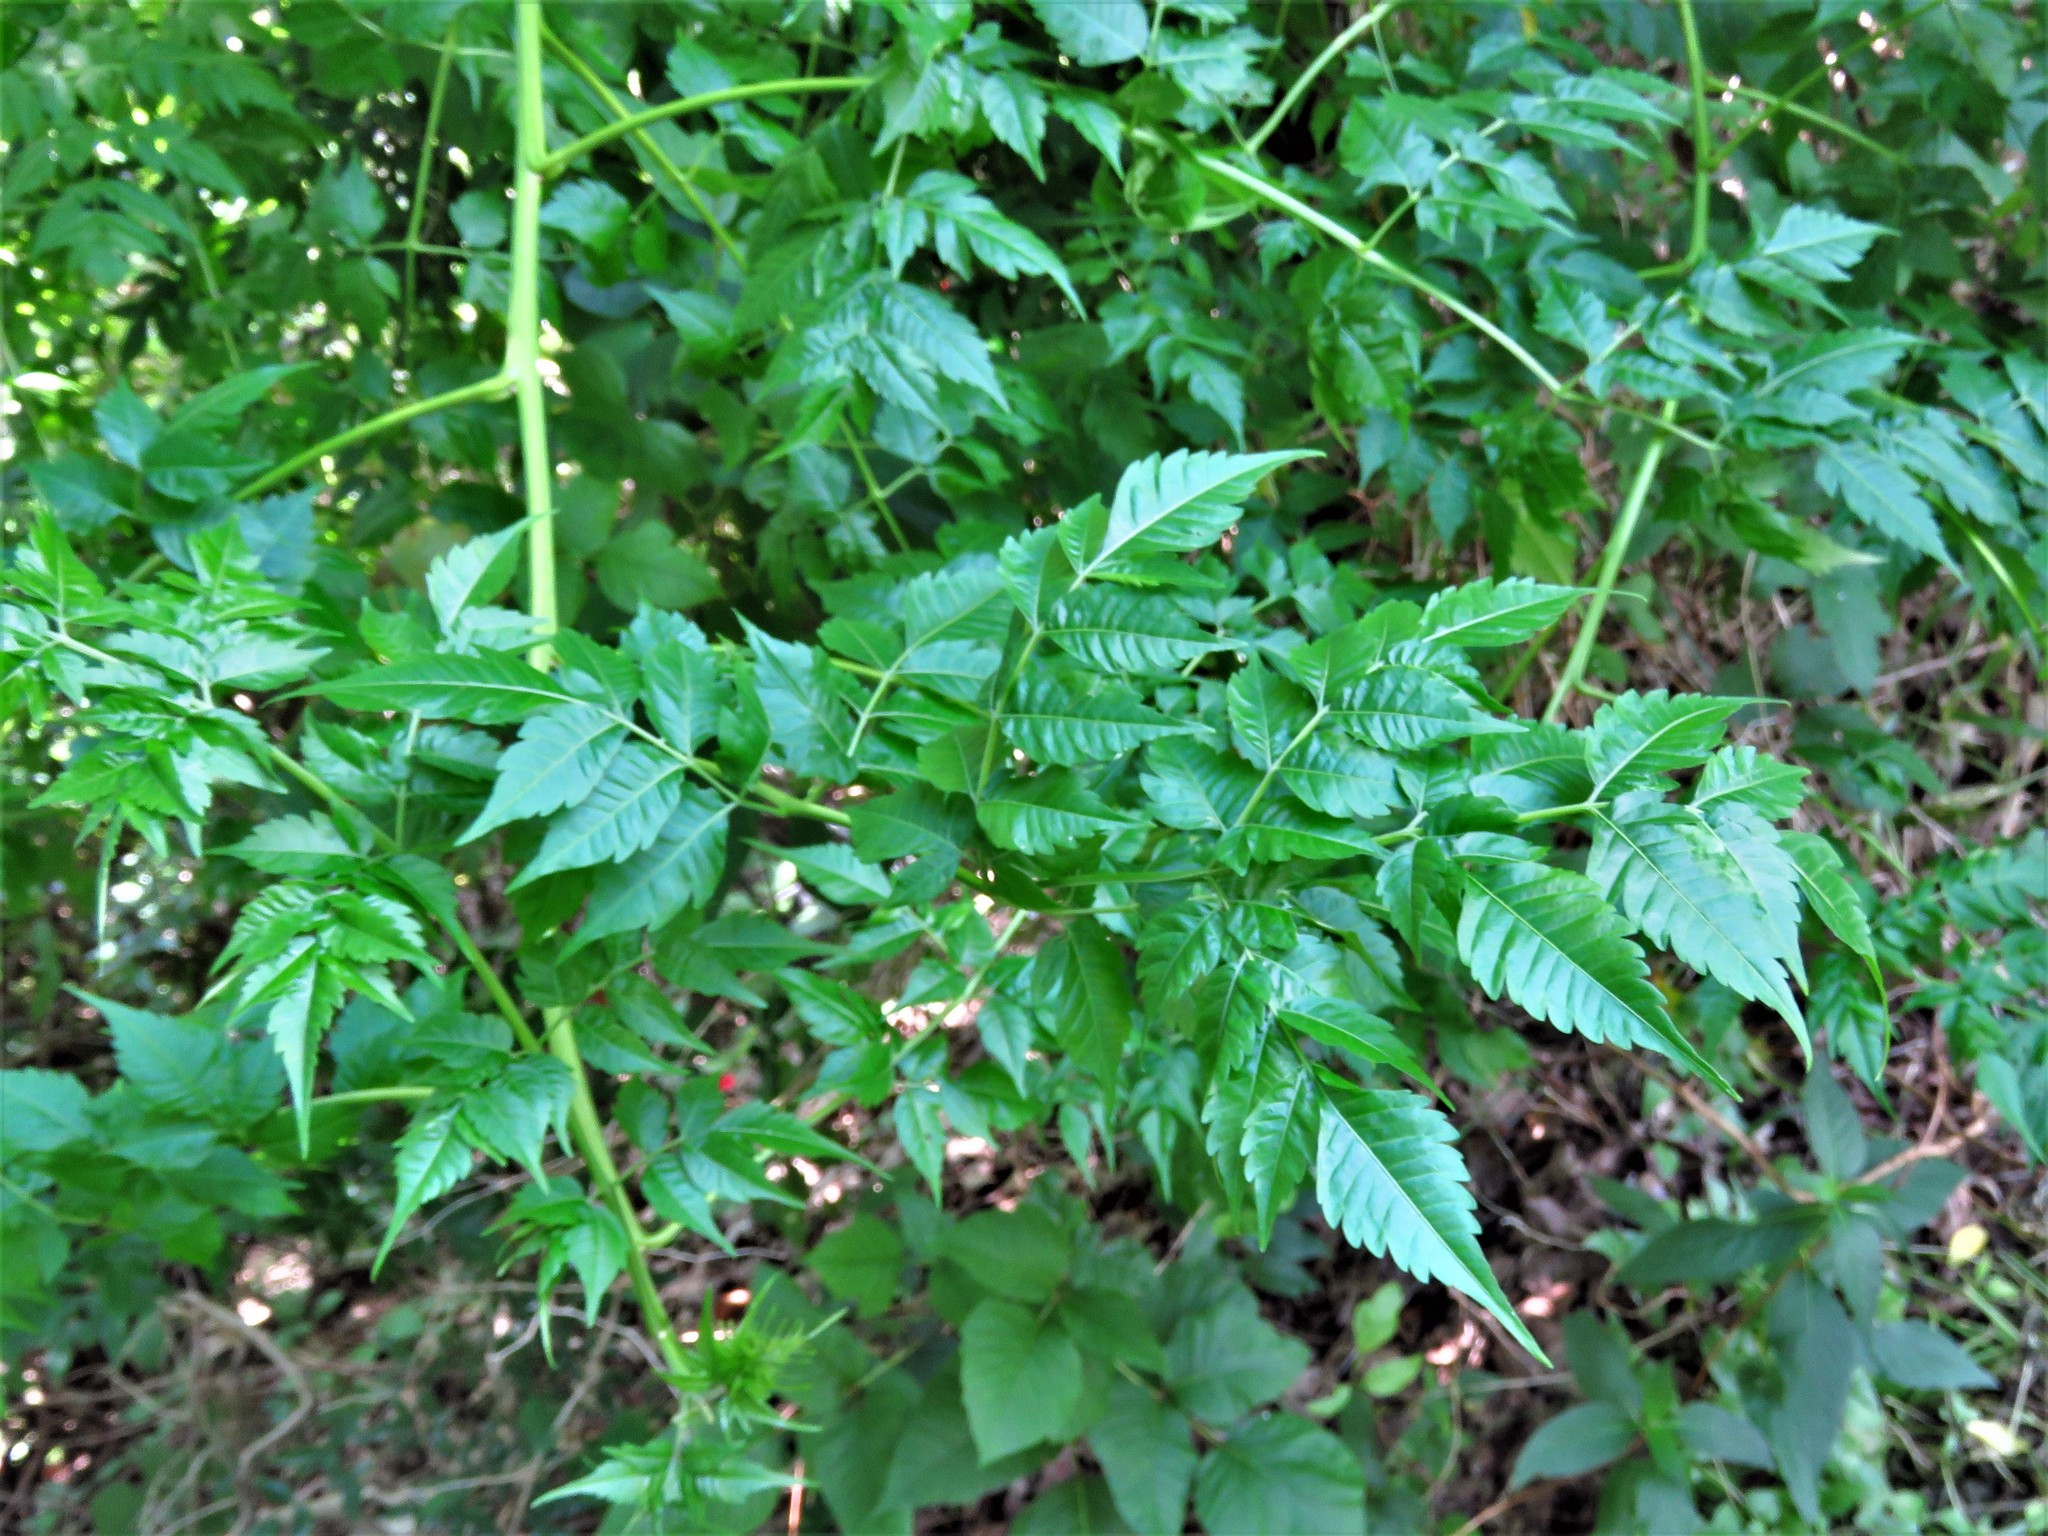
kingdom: Plantae
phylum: Tracheophyta
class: Magnoliopsida
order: Lamiales
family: Bignoniaceae
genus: Campsis
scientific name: Campsis radicans
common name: Trumpet-creeper
